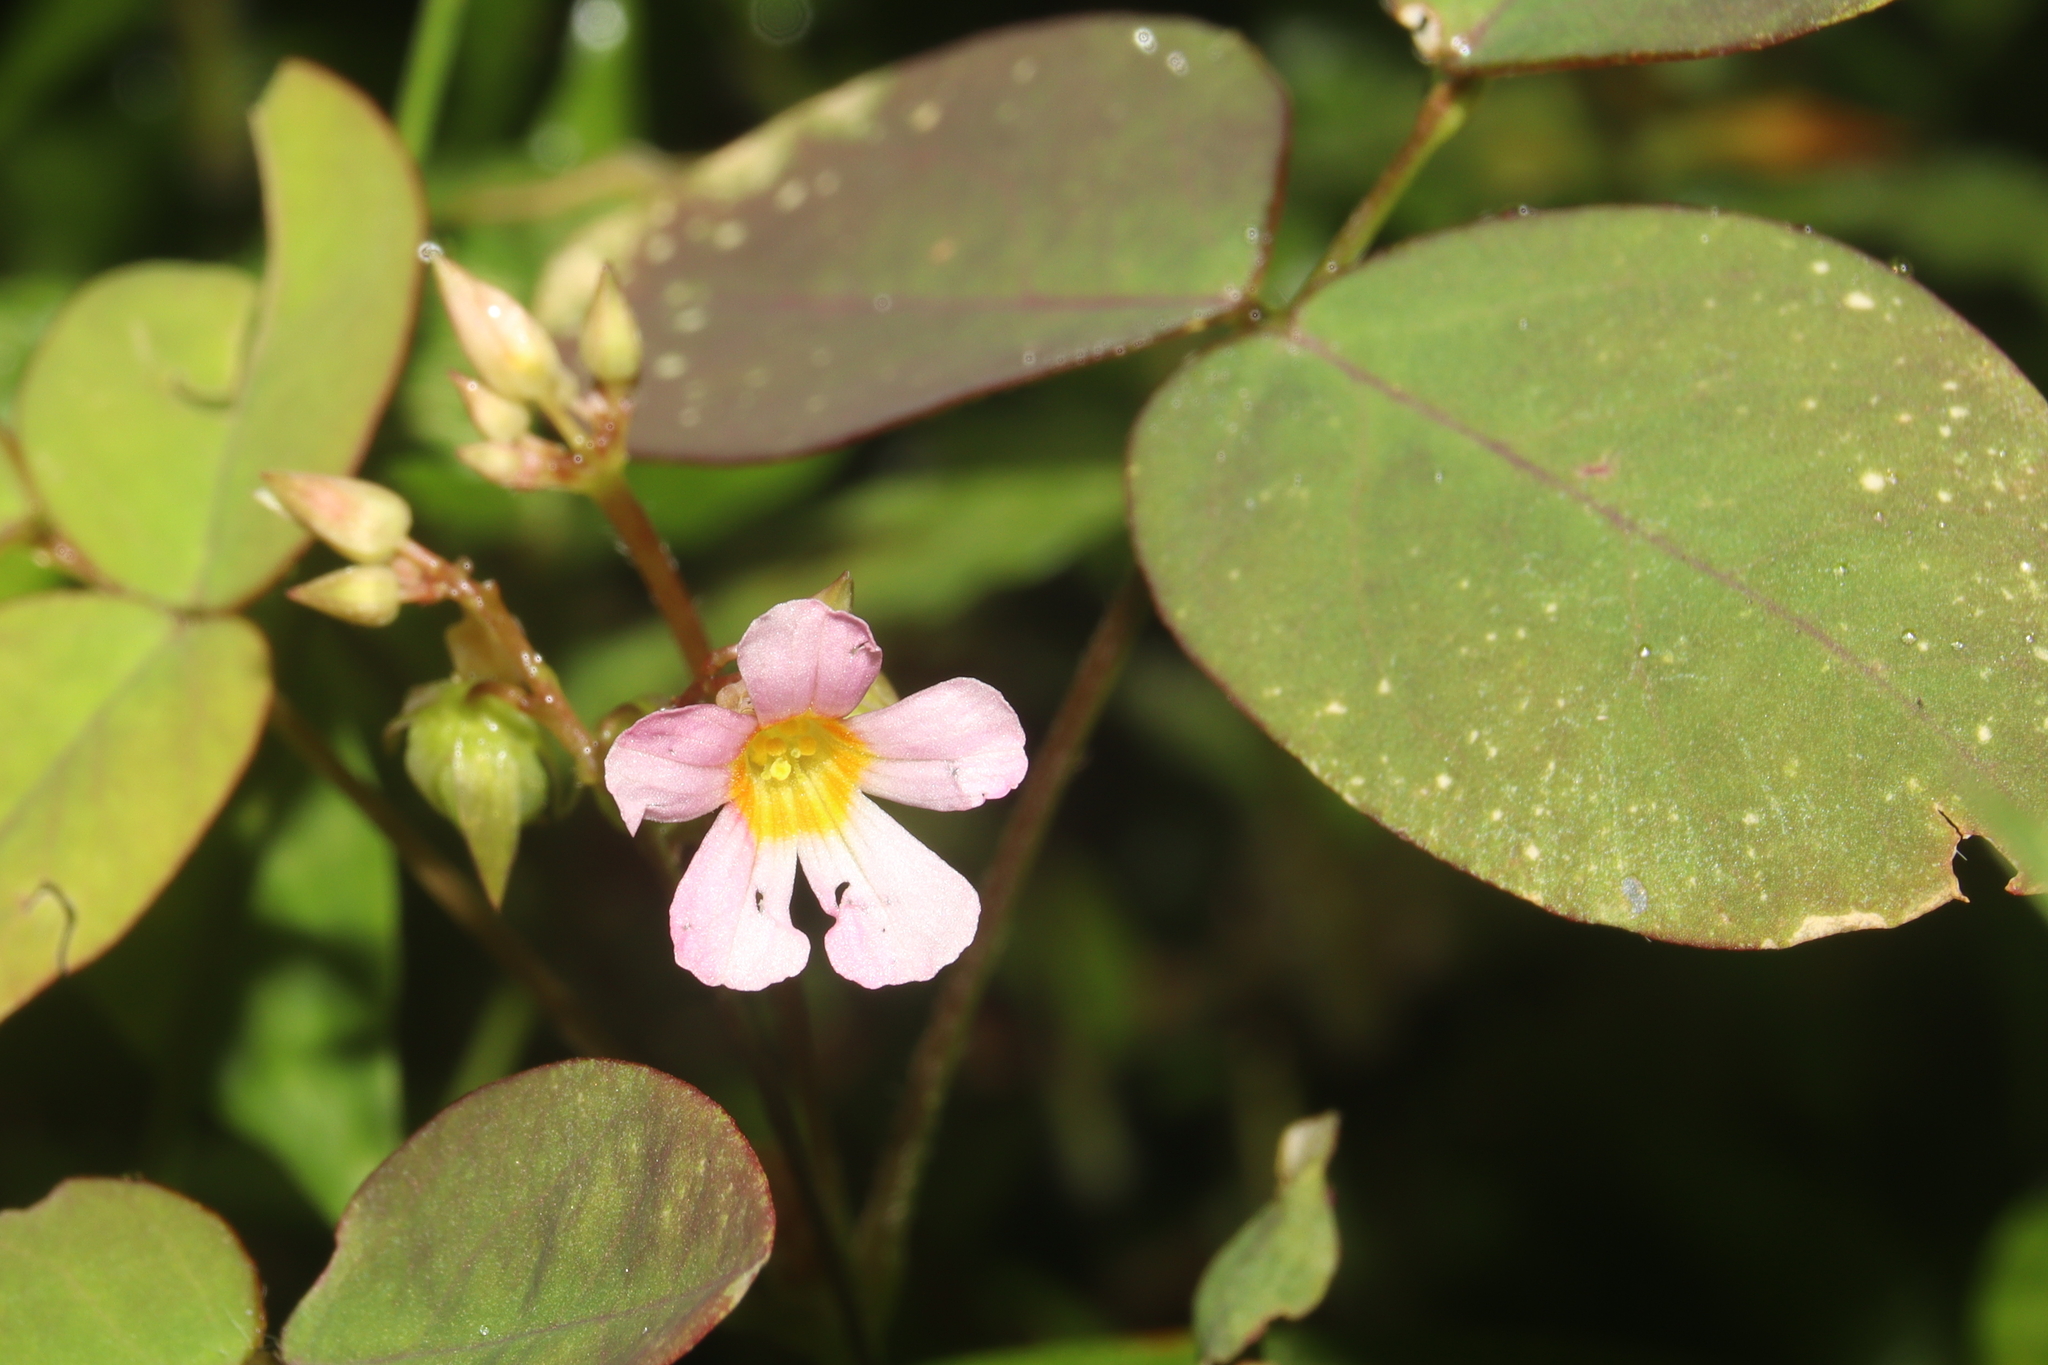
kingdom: Plantae
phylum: Tracheophyta
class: Magnoliopsida
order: Oxalidales
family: Oxalidaceae
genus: Oxalis
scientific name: Oxalis barrelieri
